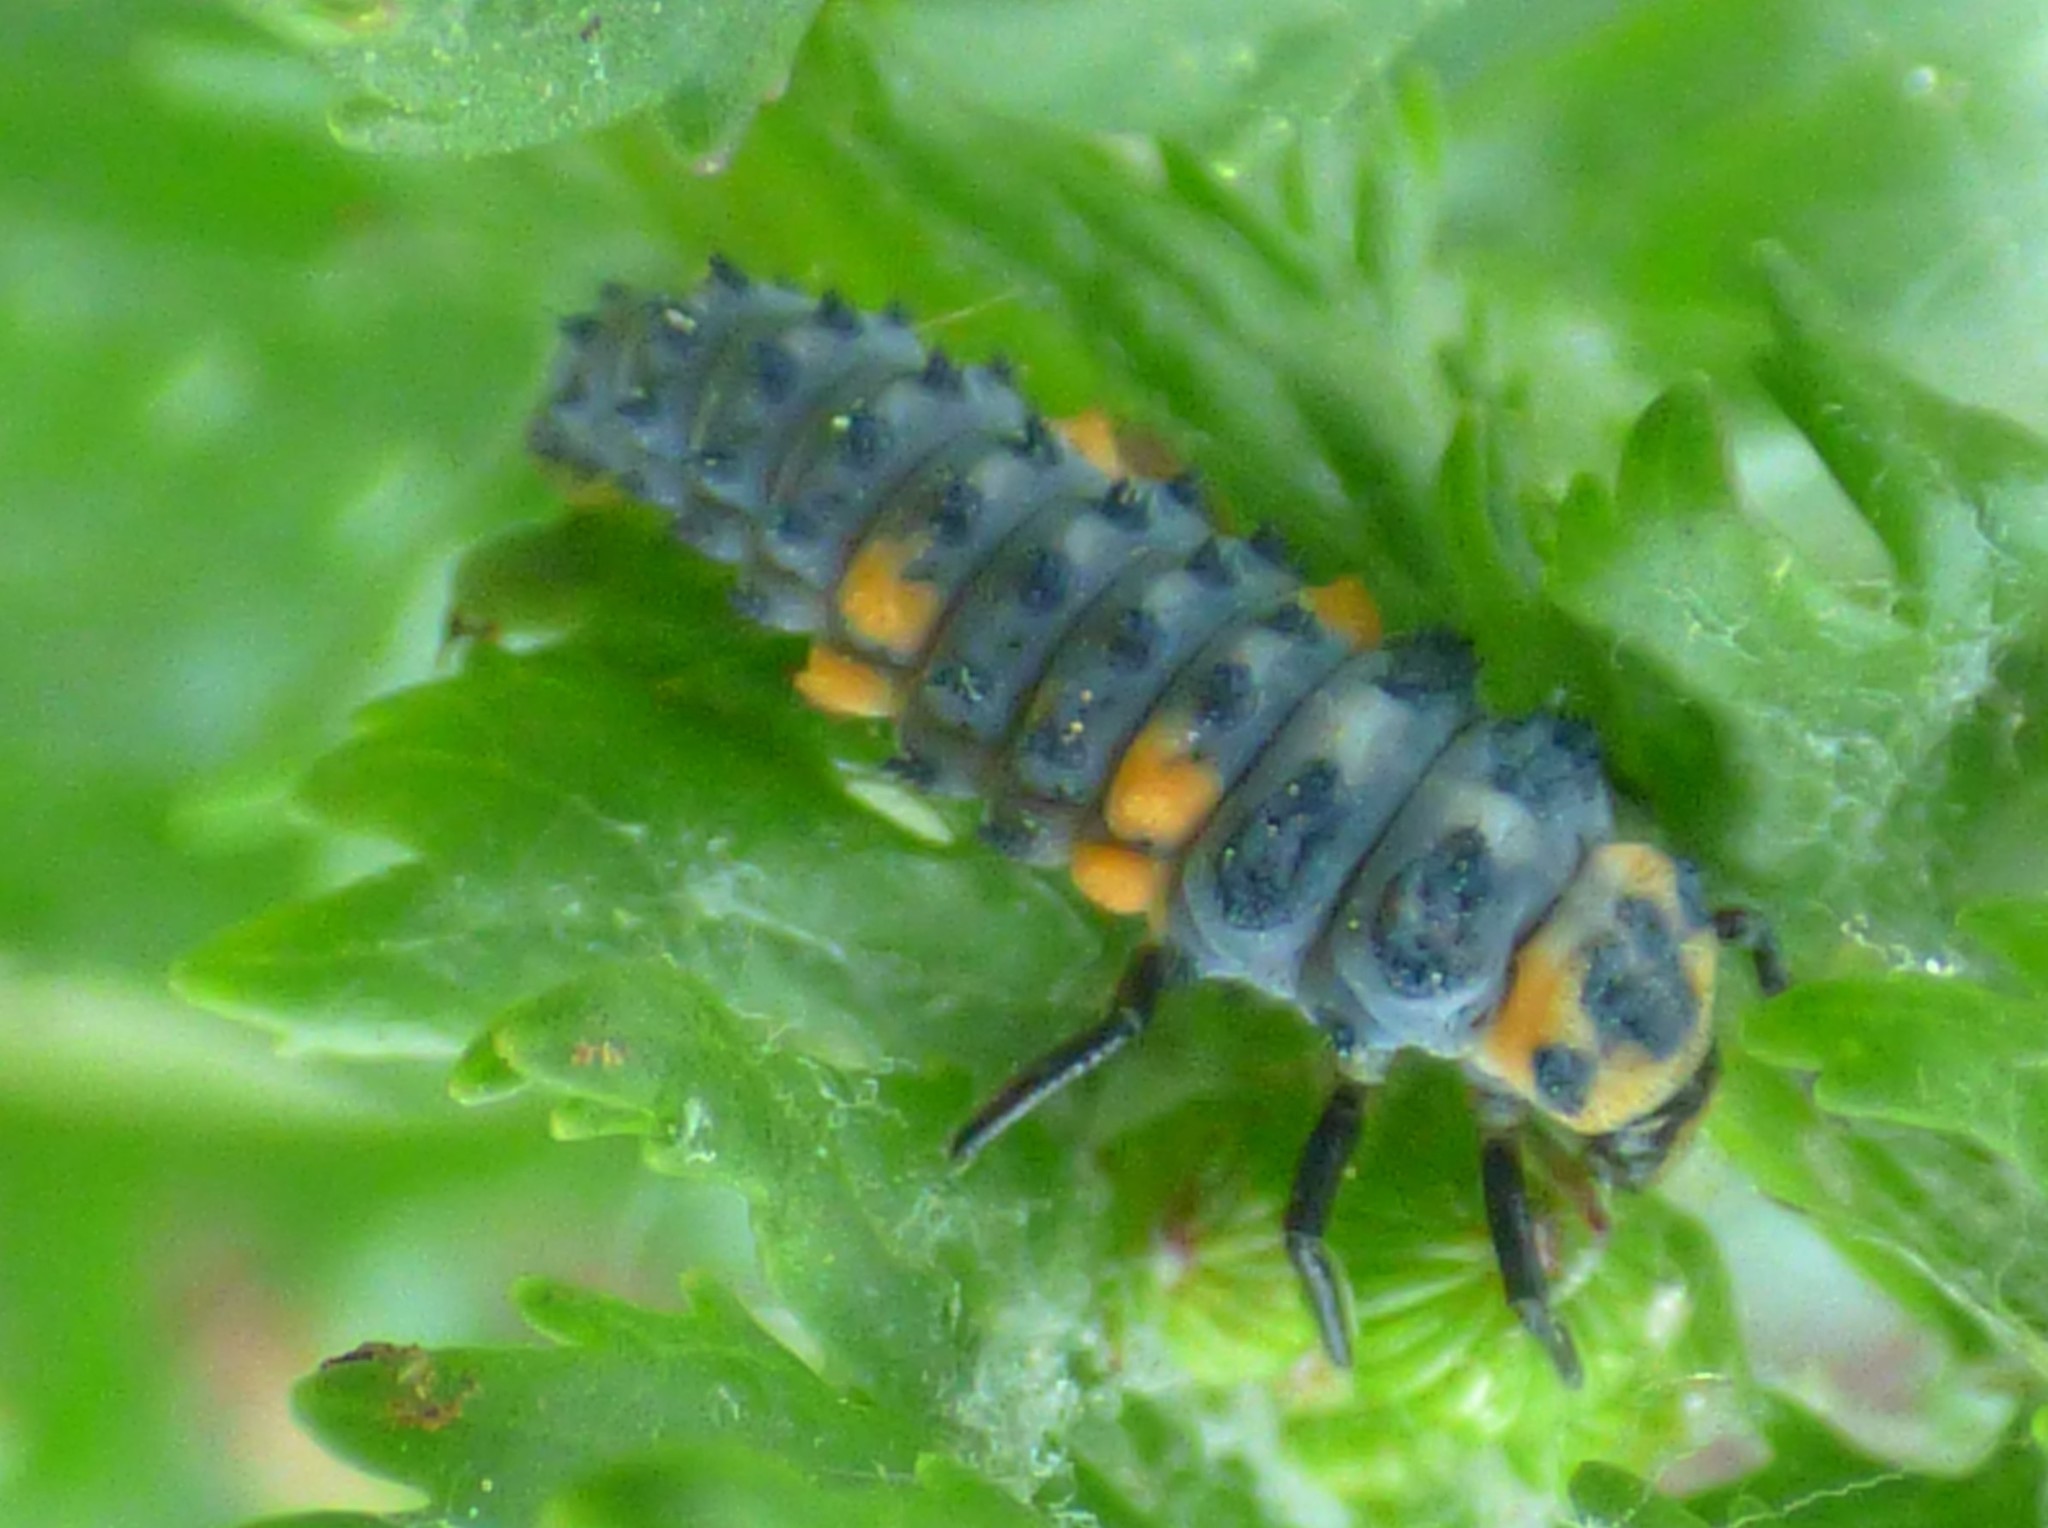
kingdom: Animalia
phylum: Arthropoda
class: Insecta
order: Coleoptera
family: Coccinellidae
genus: Coccinella
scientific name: Coccinella septempunctata
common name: Sevenspotted lady beetle
